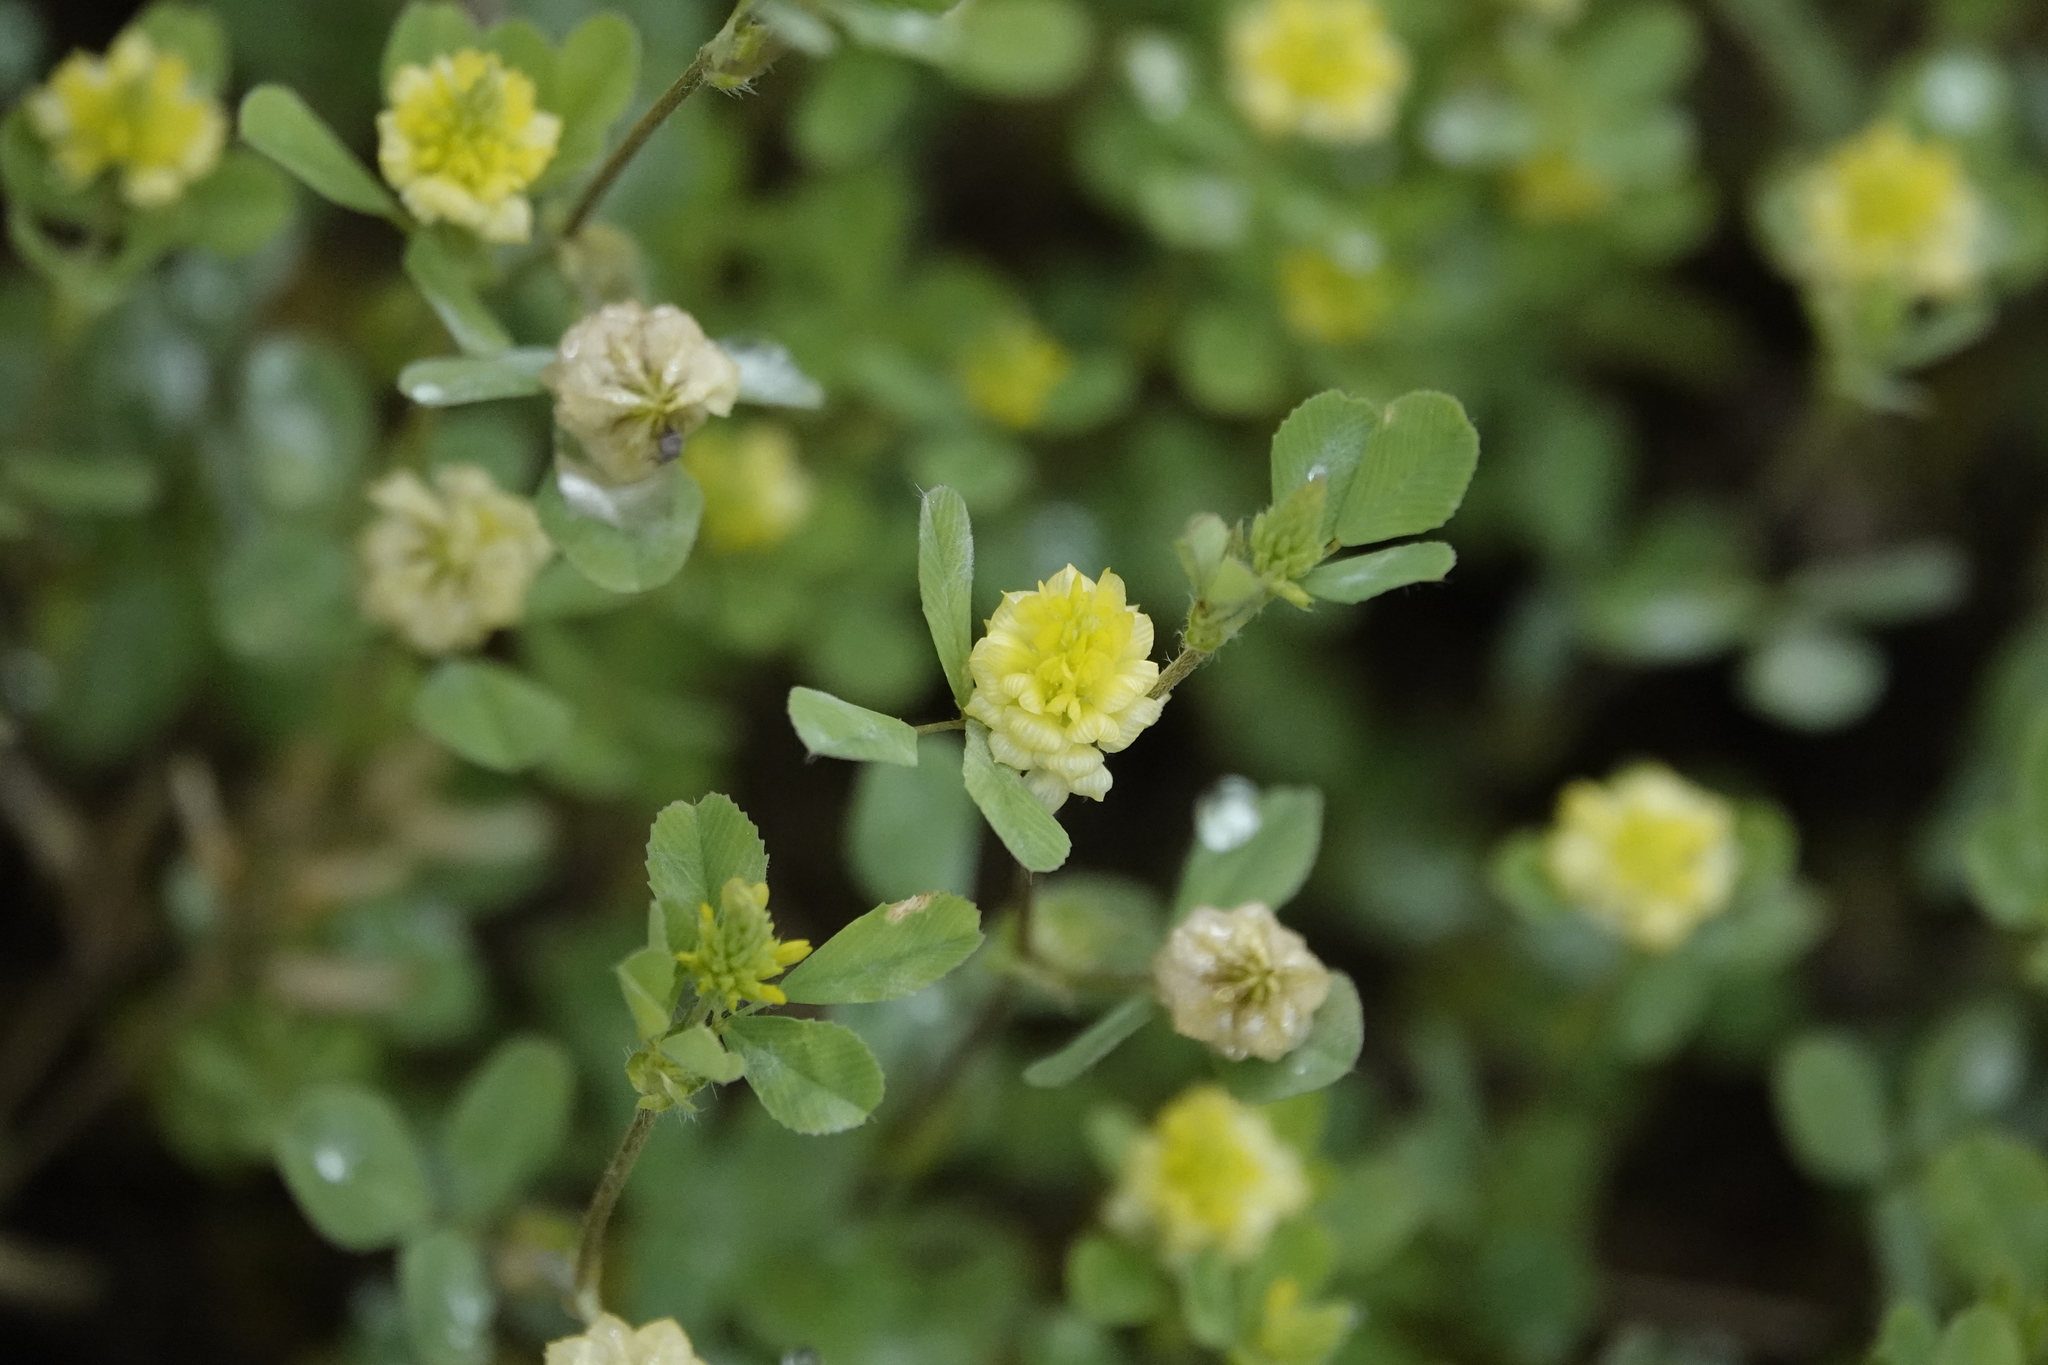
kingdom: Plantae
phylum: Tracheophyta
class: Magnoliopsida
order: Fabales
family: Fabaceae
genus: Trifolium
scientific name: Trifolium campestre
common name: Field clover
